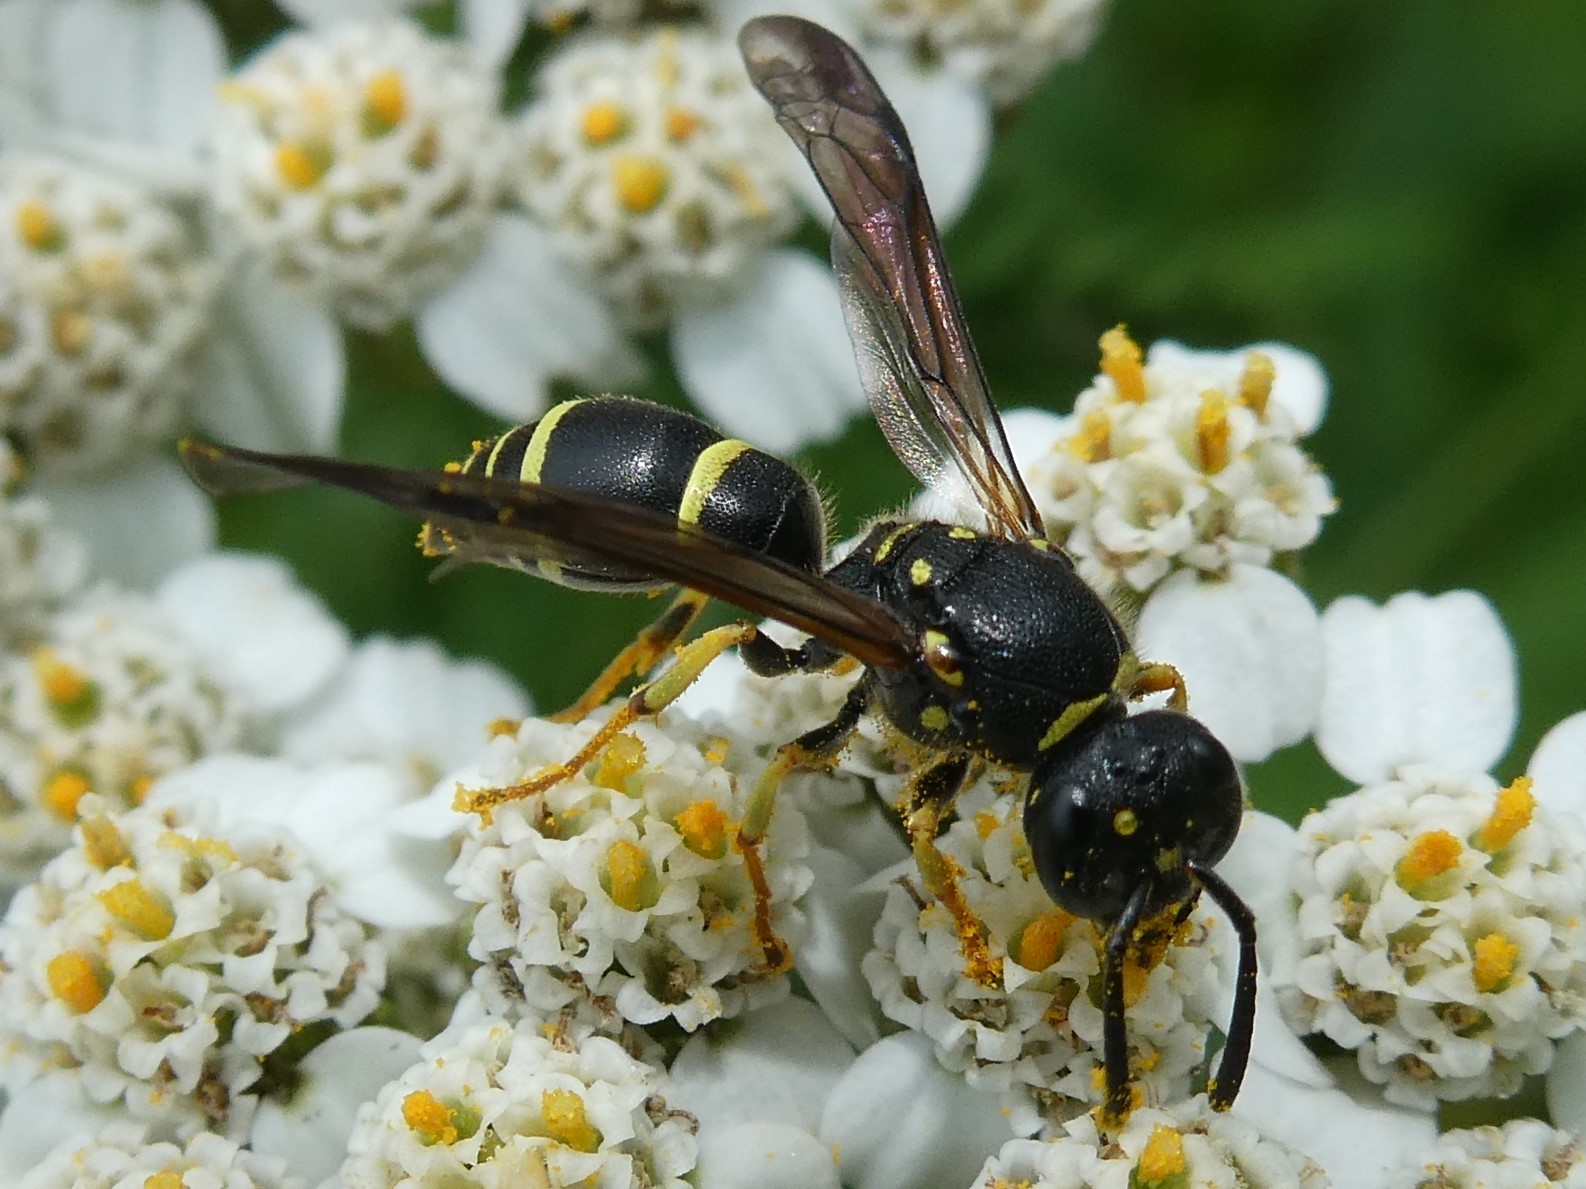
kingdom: Animalia
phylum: Arthropoda
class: Insecta
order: Hymenoptera
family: Vespidae
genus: Ancistrocerus
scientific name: Ancistrocerus adiabatus
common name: Bramble mason wasp
